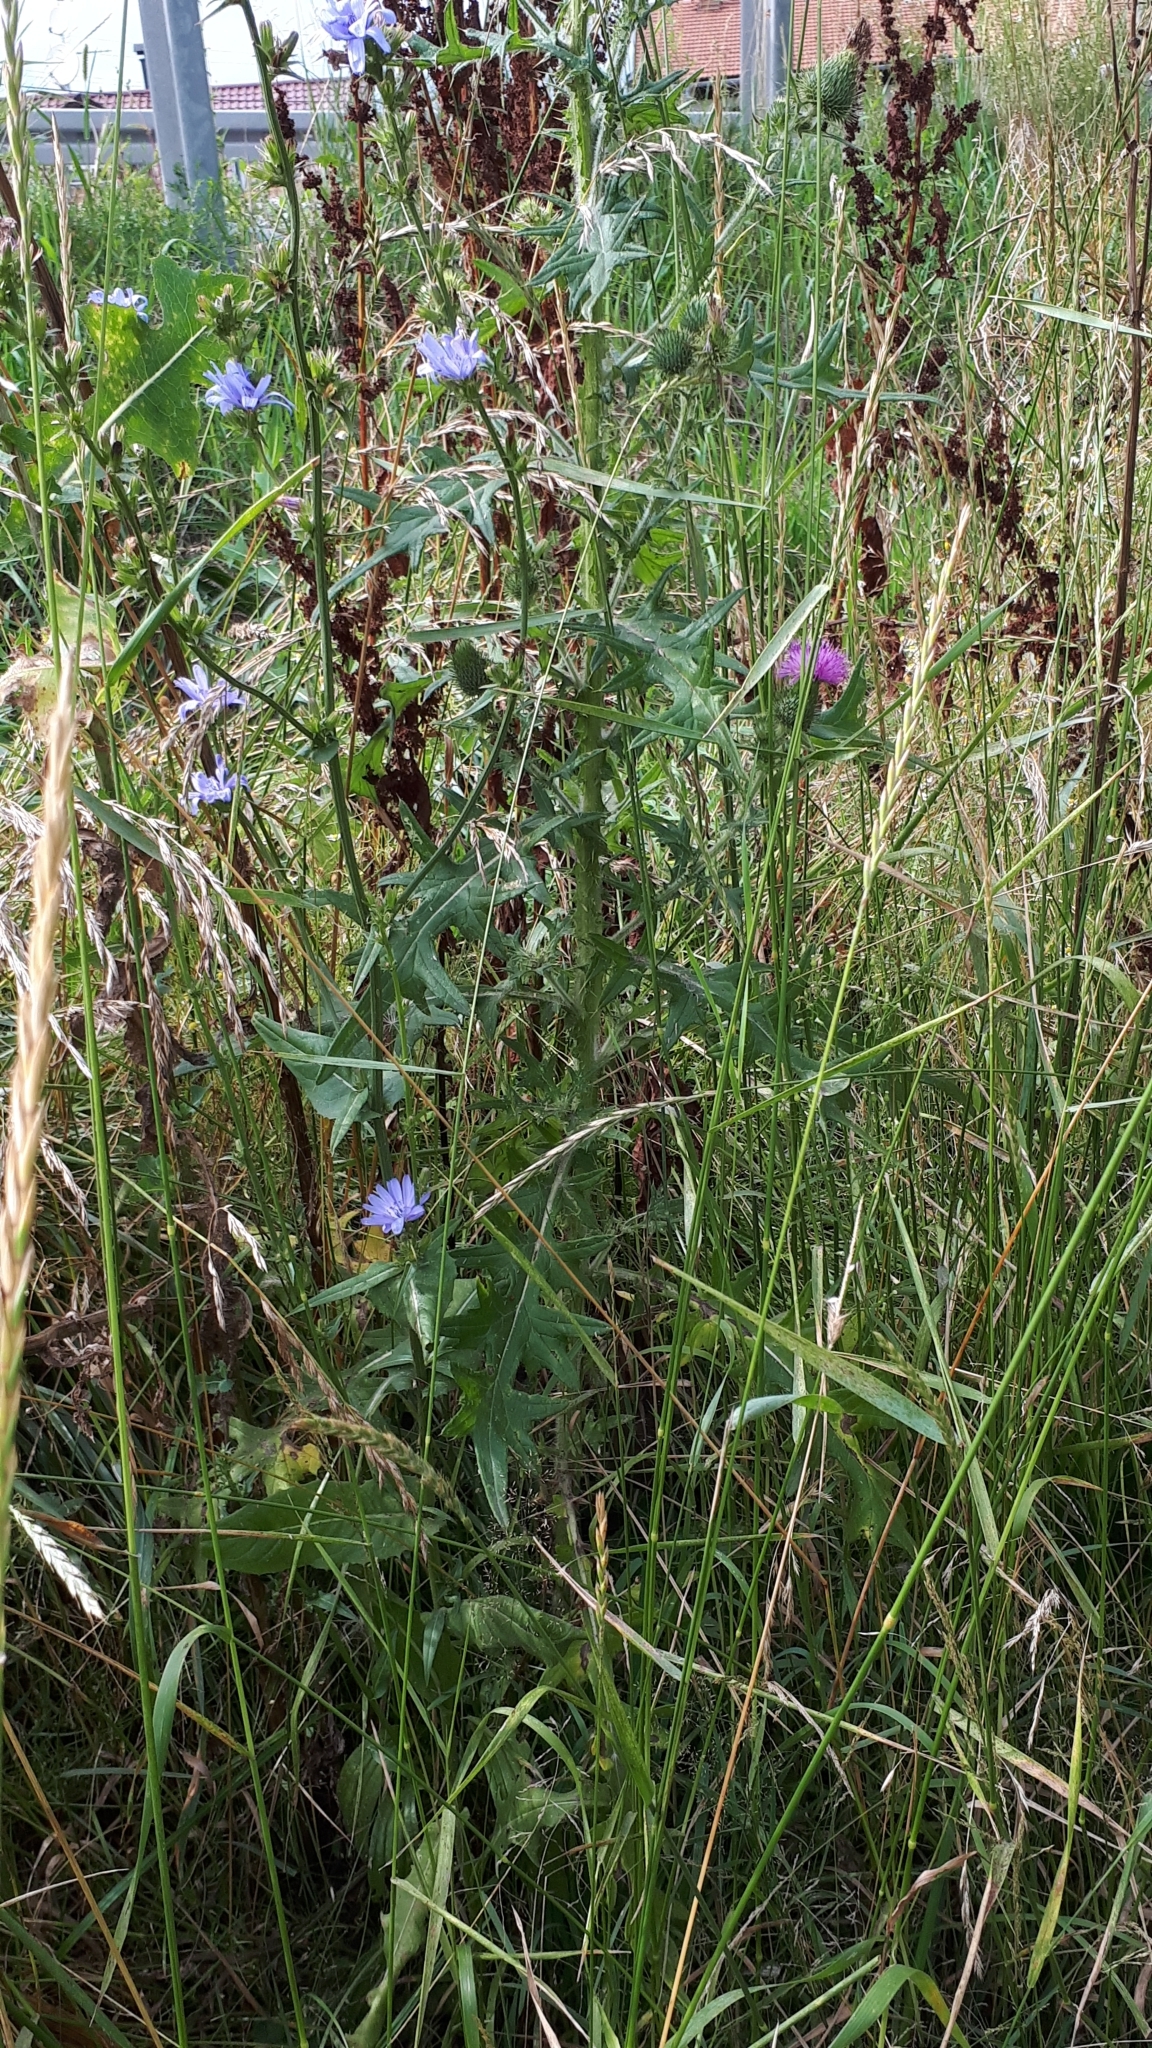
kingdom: Plantae
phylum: Tracheophyta
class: Magnoliopsida
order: Asterales
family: Asteraceae
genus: Cichorium
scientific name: Cichorium intybus
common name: Chicory
